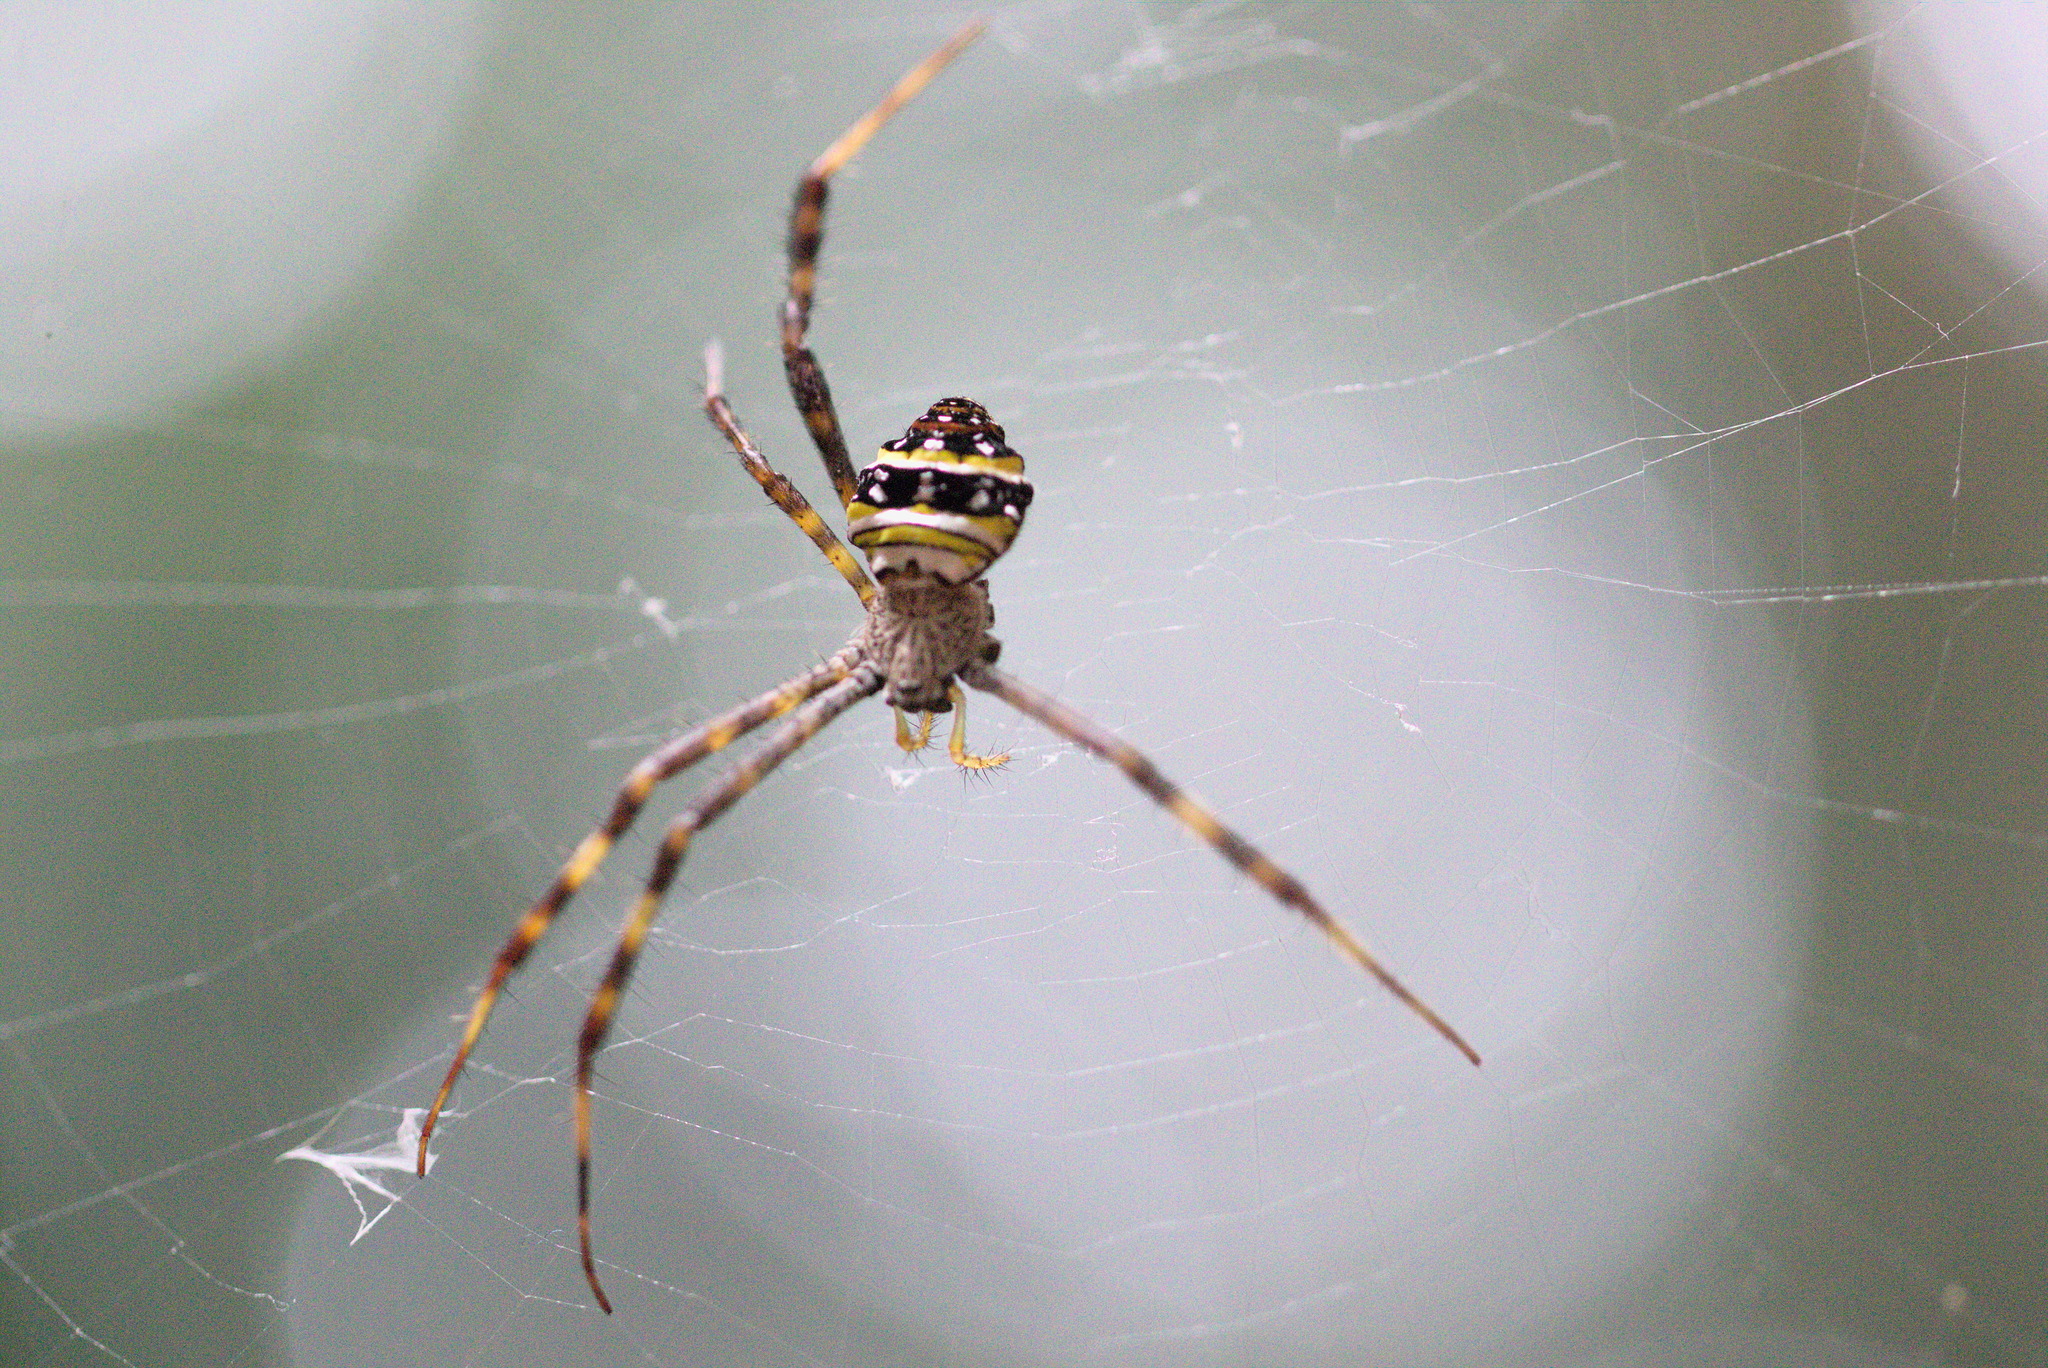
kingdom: Animalia
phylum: Arthropoda
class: Arachnida
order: Araneae
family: Araneidae
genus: Argiope
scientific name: Argiope aetheroides
